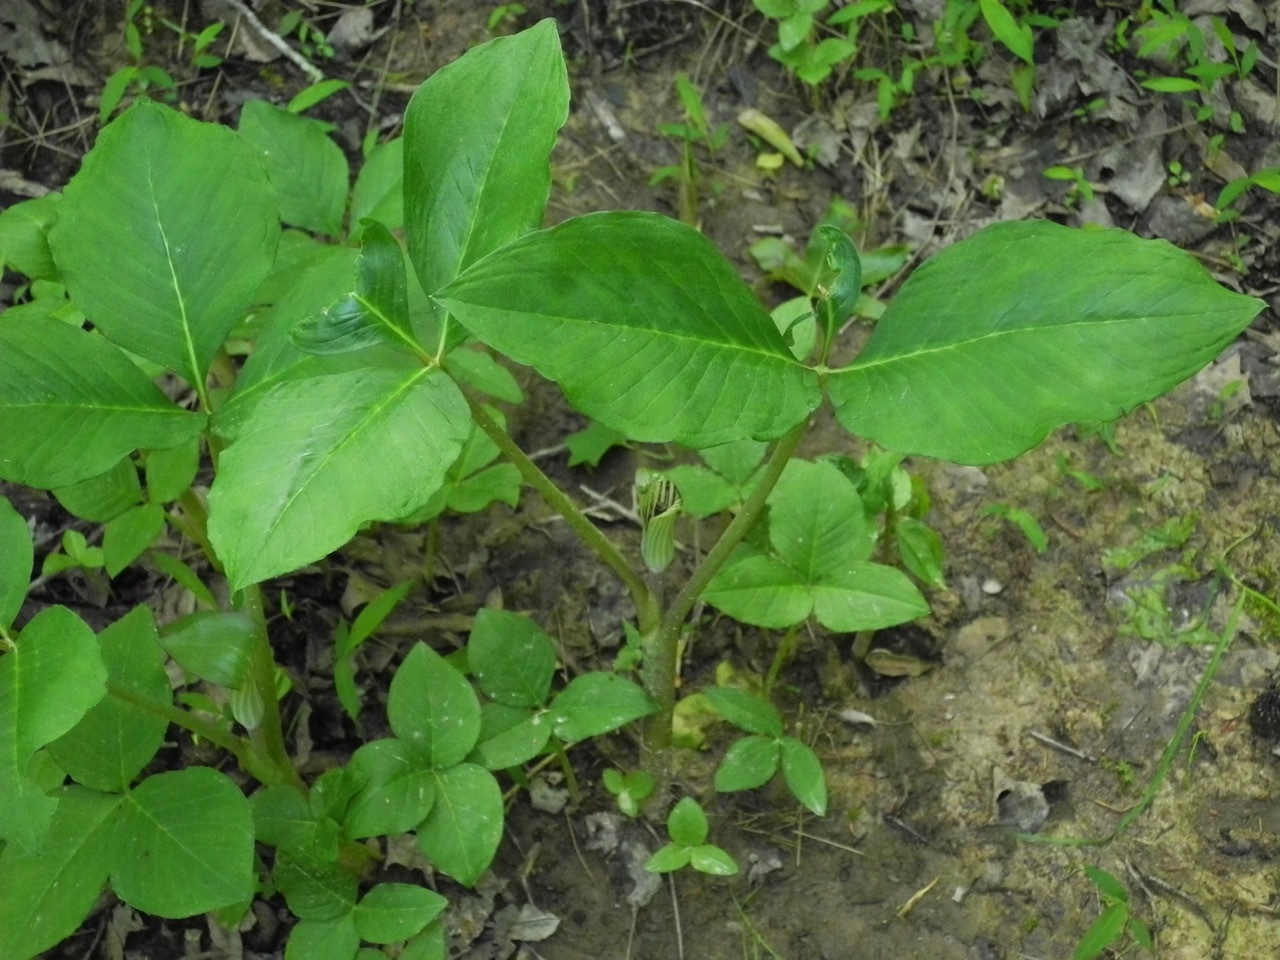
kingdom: Plantae
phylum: Tracheophyta
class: Liliopsida
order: Alismatales
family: Araceae
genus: Arisaema
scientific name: Arisaema triphyllum
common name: Jack-in-the-pulpit
